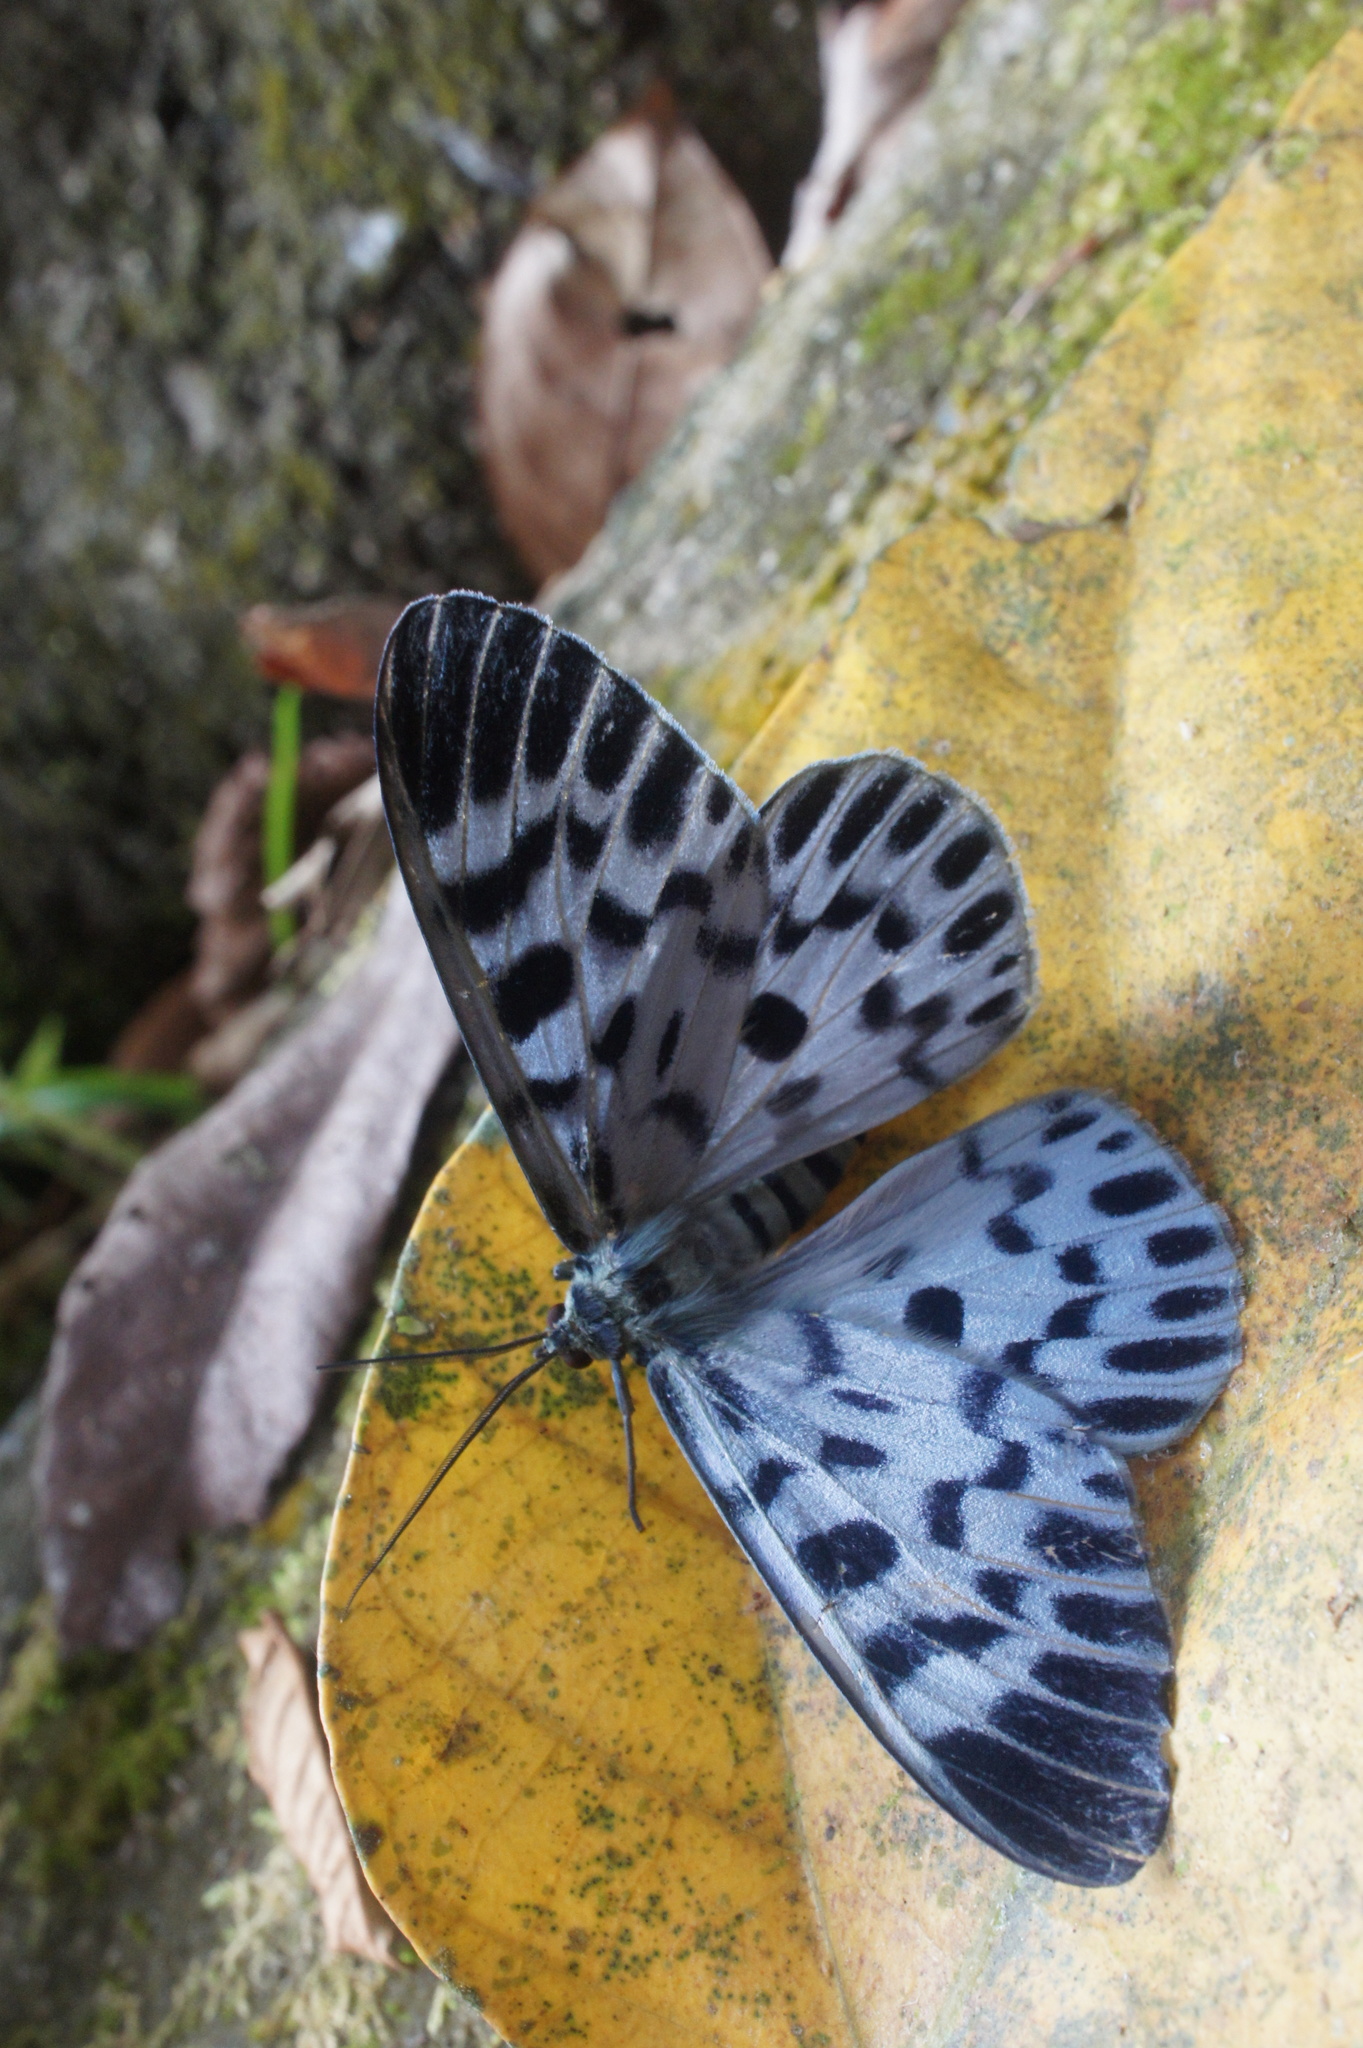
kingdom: Animalia
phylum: Arthropoda
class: Insecta
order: Lepidoptera
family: Geometridae
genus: Dysphania
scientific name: Dysphania malayanus
